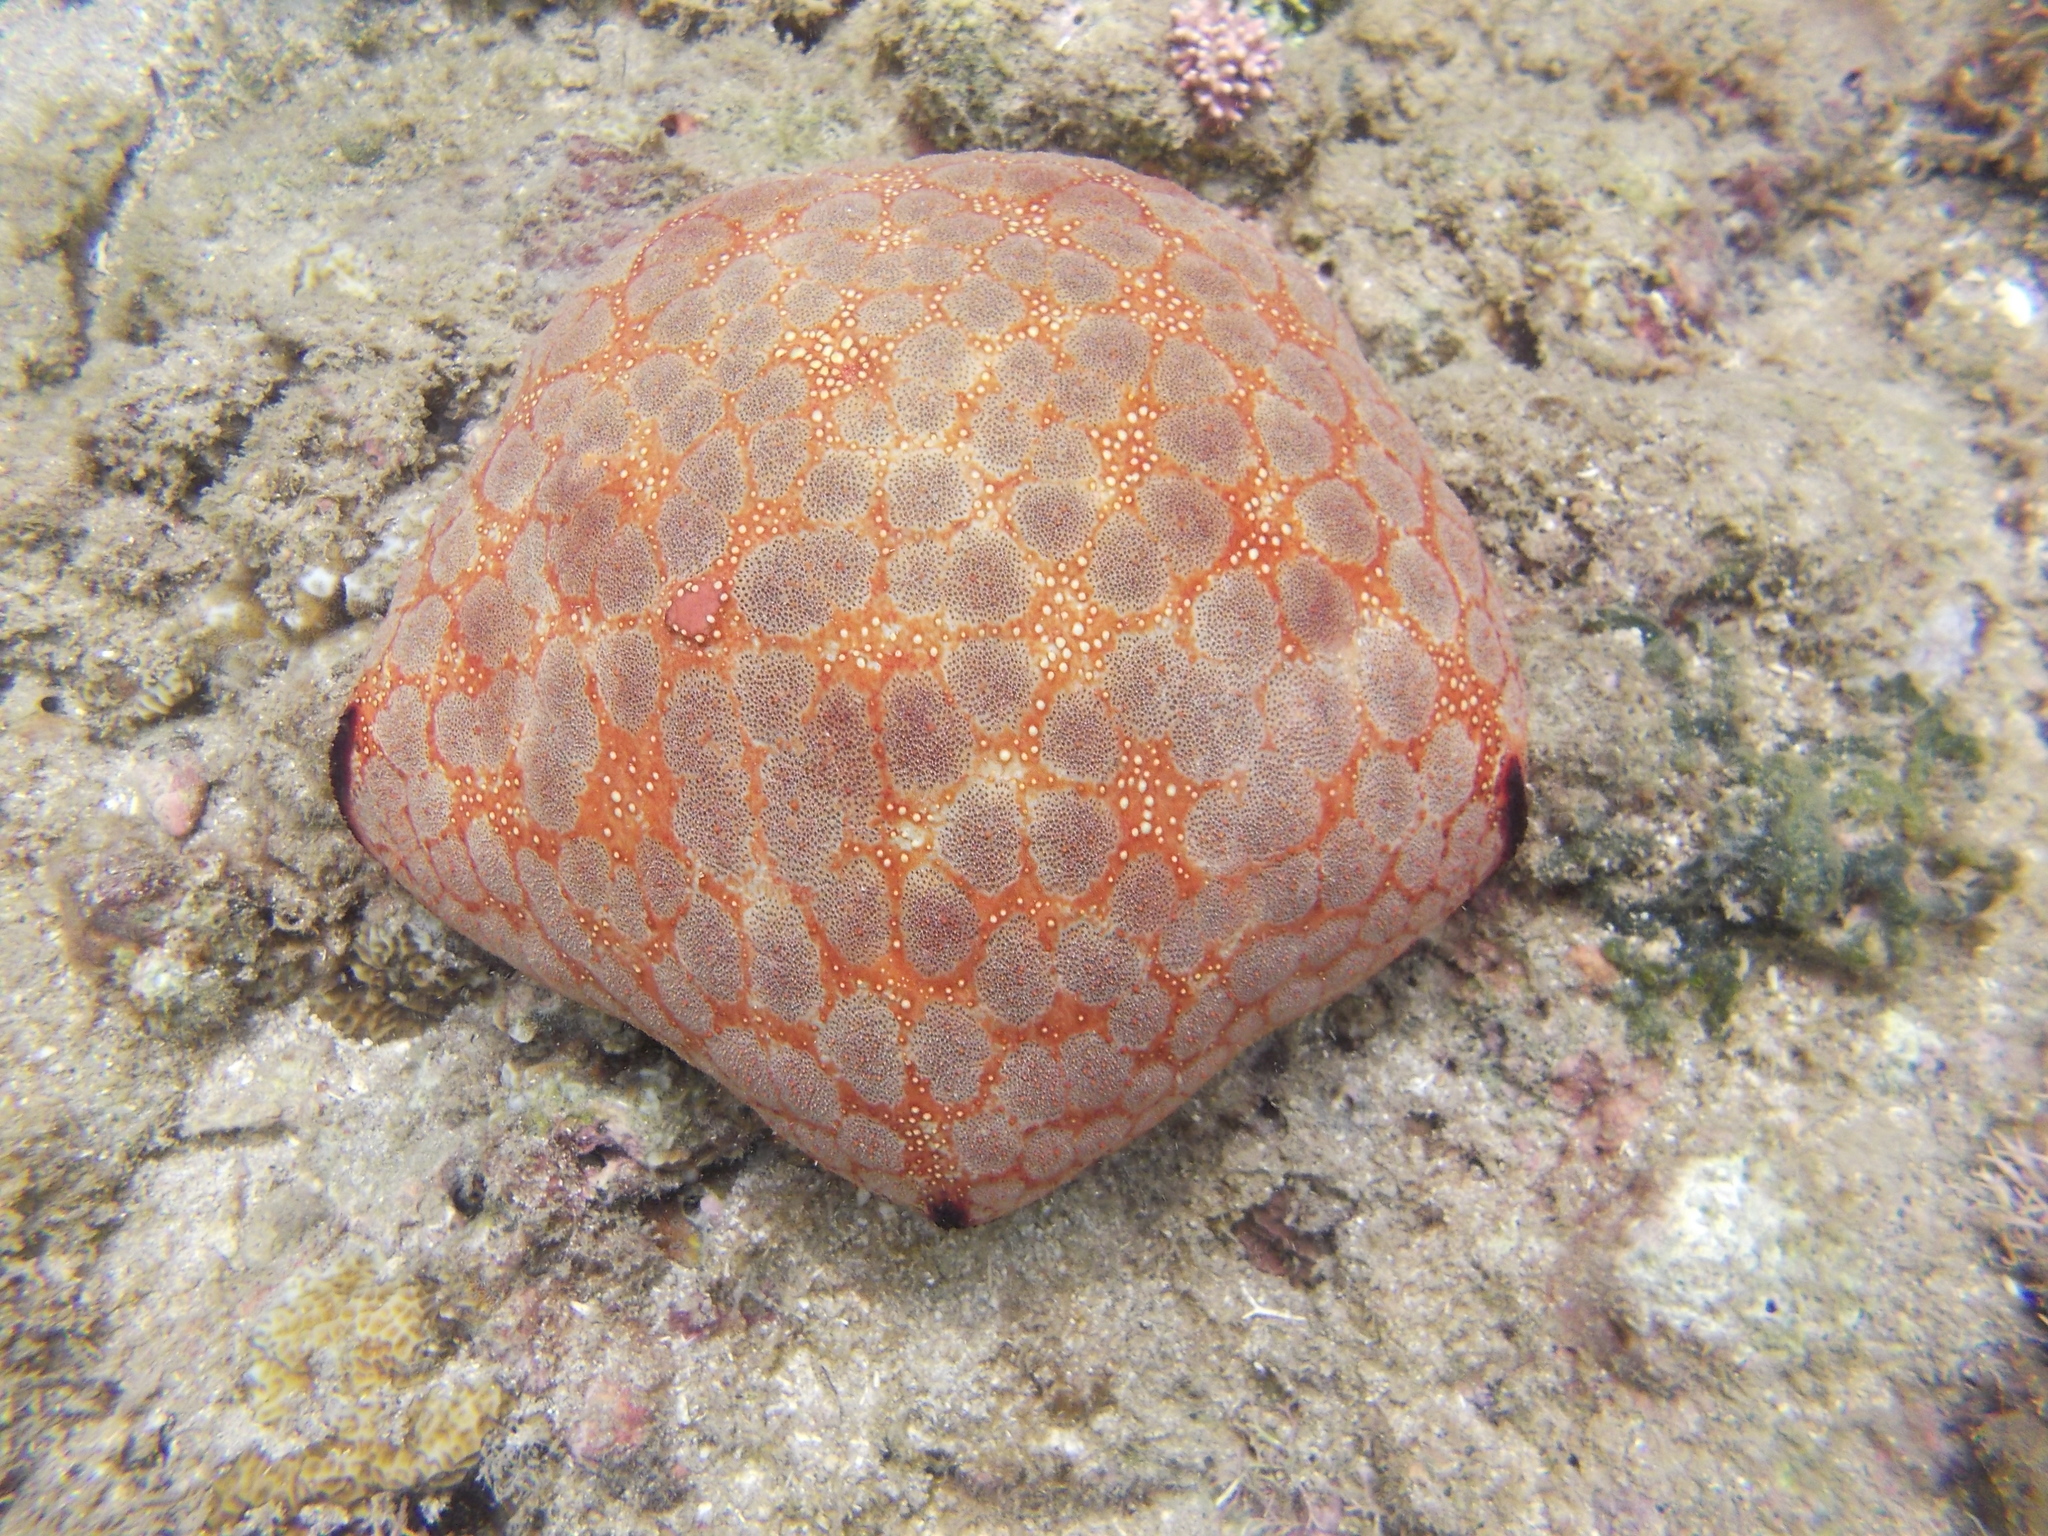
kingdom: Animalia
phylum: Echinodermata
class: Asteroidea
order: Valvatida
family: Oreasteridae
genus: Culcita
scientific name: Culcita novaeguineae
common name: Cushion star
